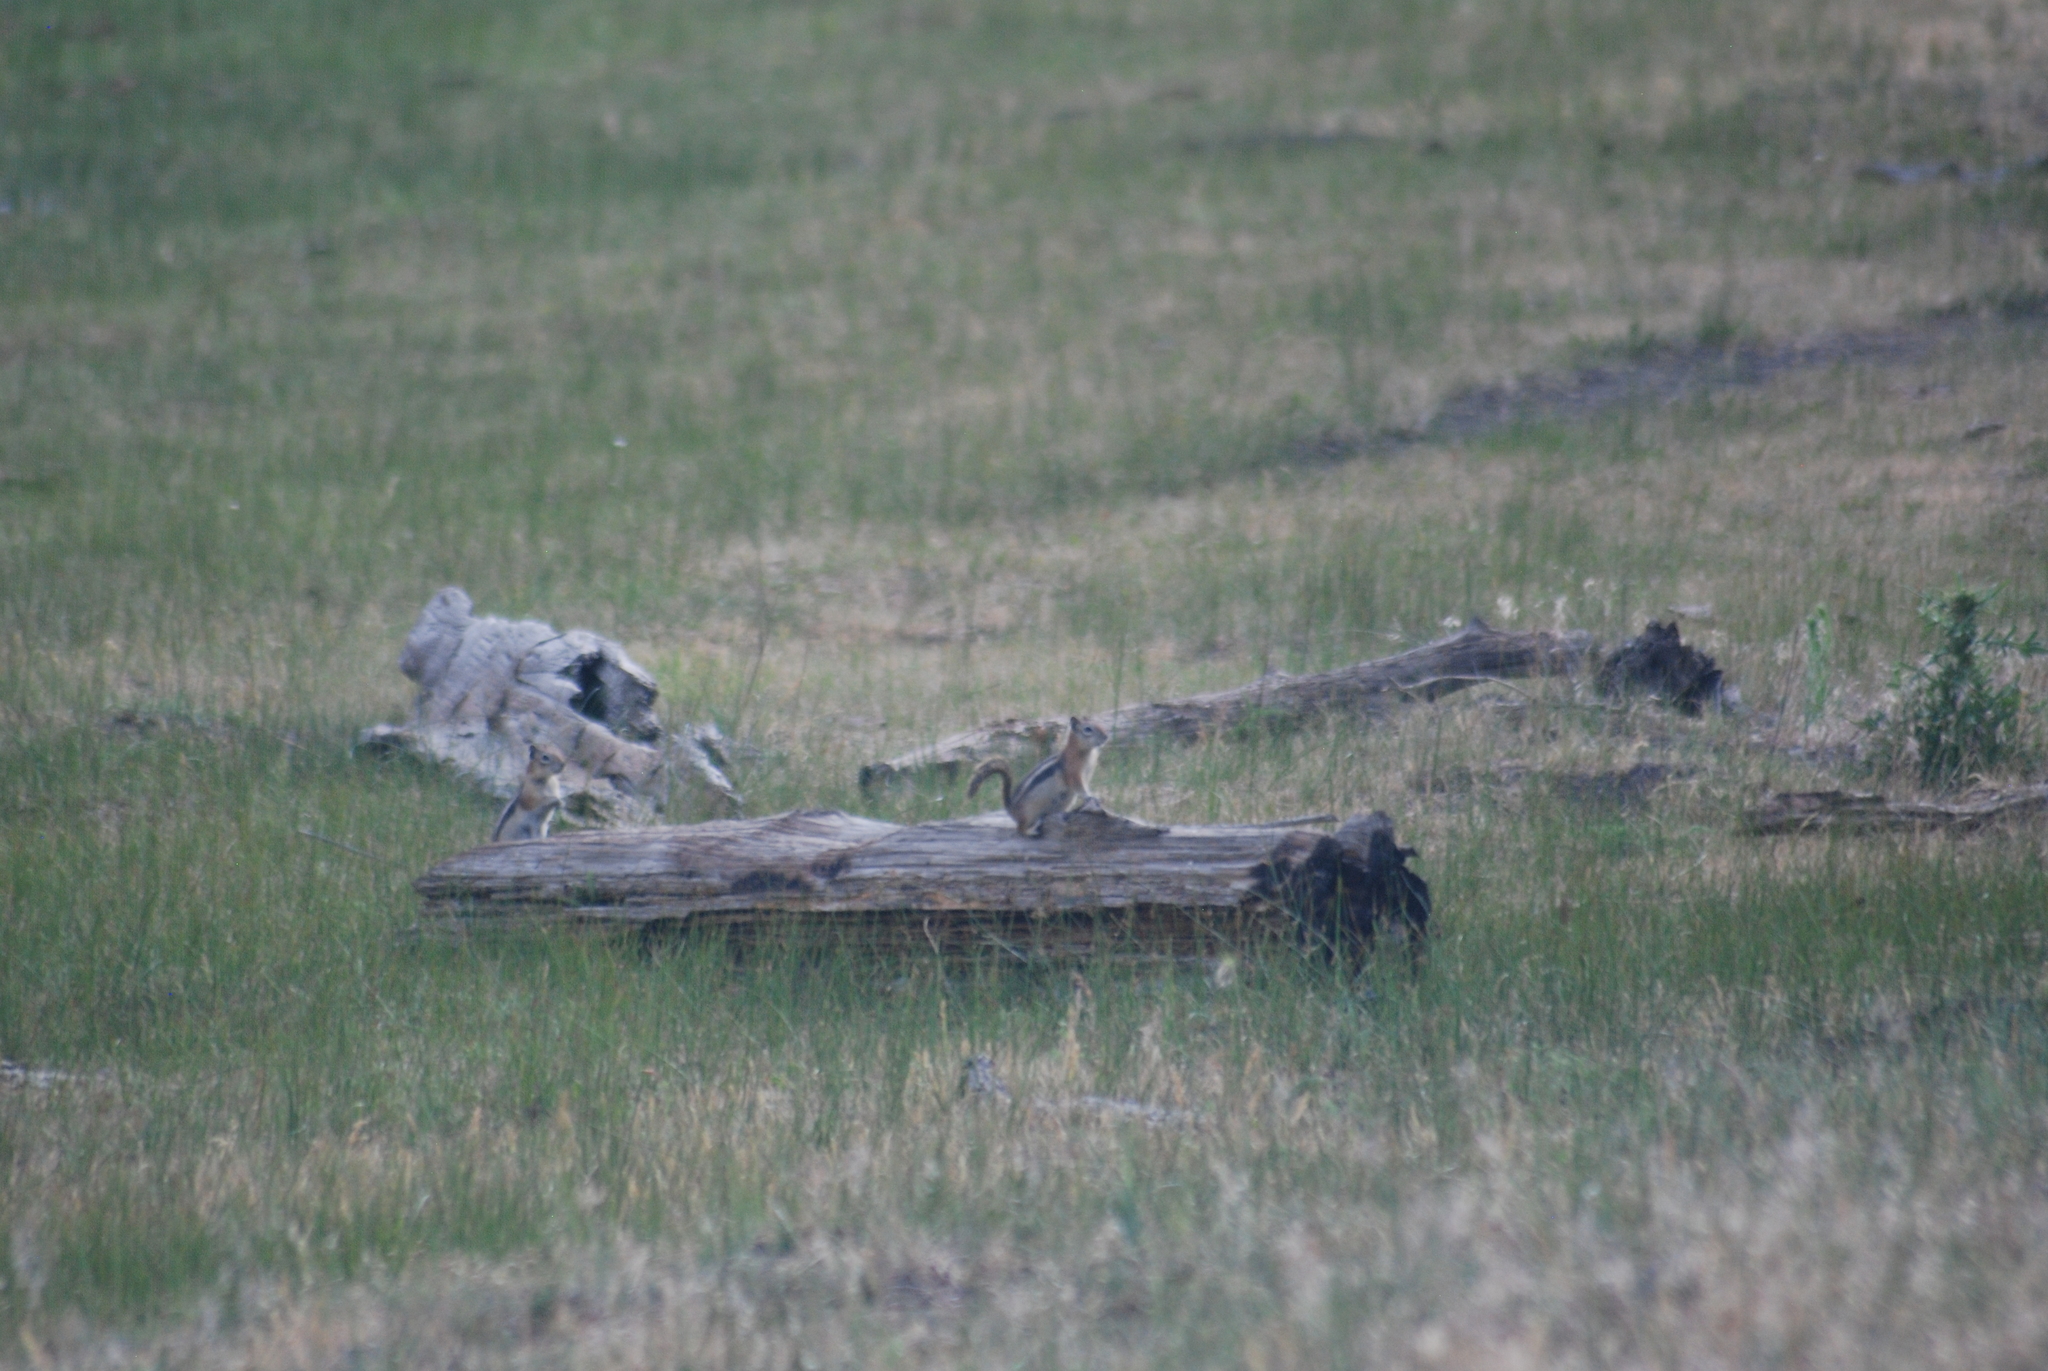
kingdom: Animalia
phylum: Chordata
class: Mammalia
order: Rodentia
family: Sciuridae
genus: Callospermophilus
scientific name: Callospermophilus lateralis
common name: Golden-mantled ground squirrel
